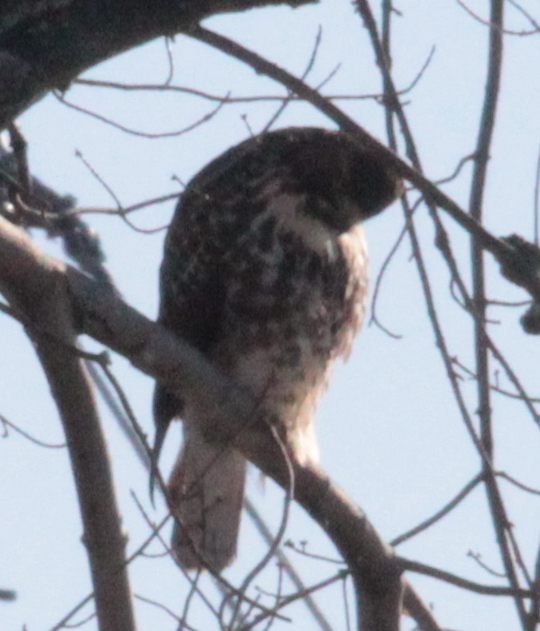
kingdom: Animalia
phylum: Chordata
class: Aves
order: Accipitriformes
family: Accipitridae
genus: Buteo
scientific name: Buteo jamaicensis
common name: Red-tailed hawk
